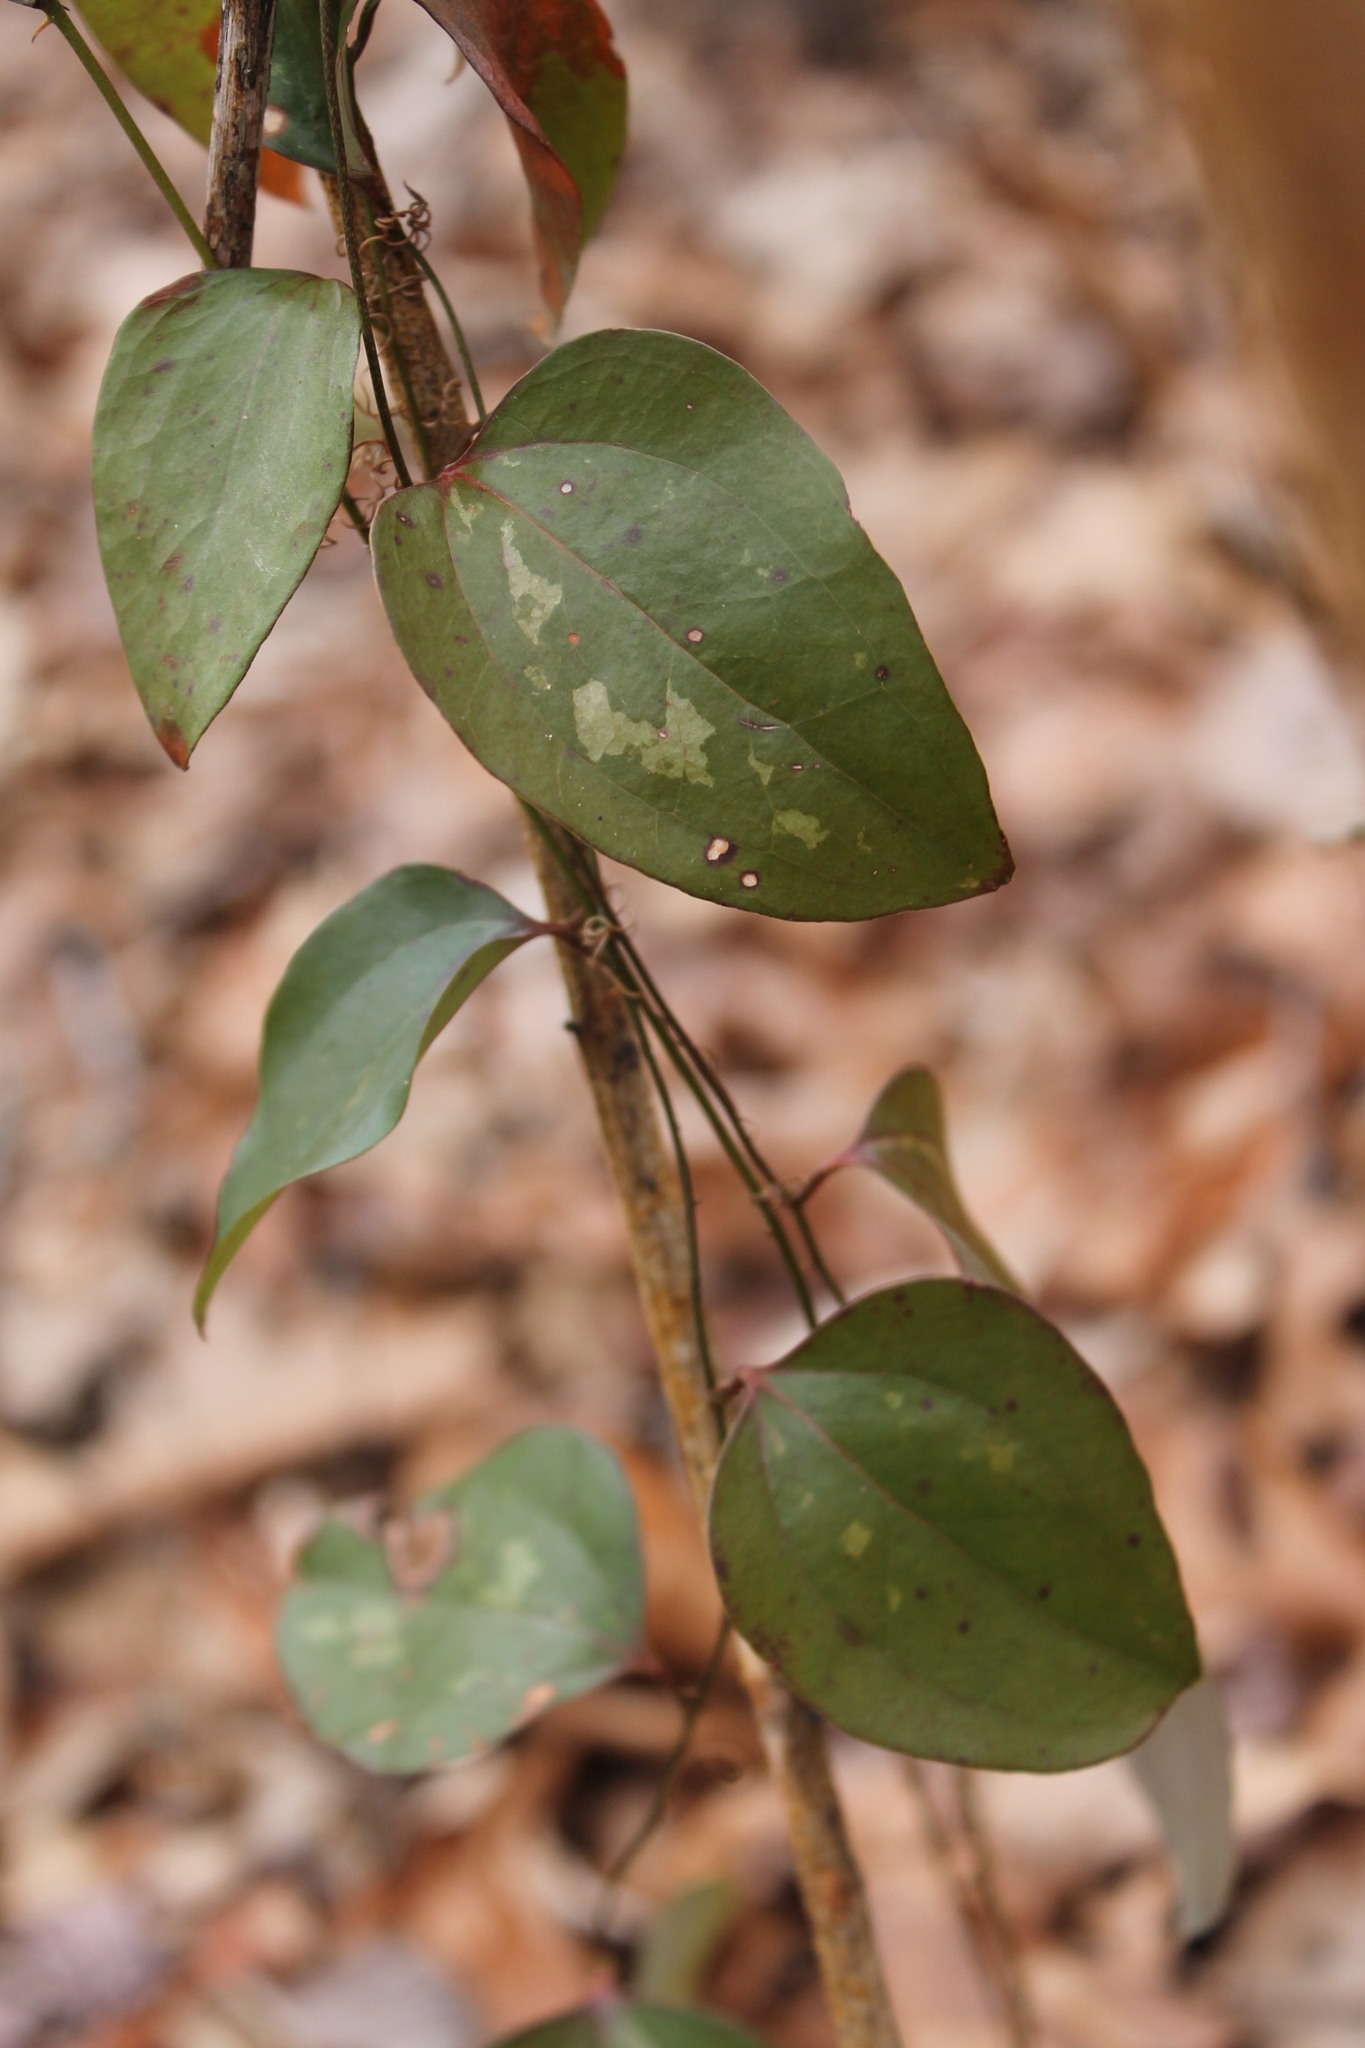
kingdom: Plantae
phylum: Tracheophyta
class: Liliopsida
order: Liliales
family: Smilacaceae
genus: Smilax
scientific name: Smilax glauca
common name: Cat greenbrier
